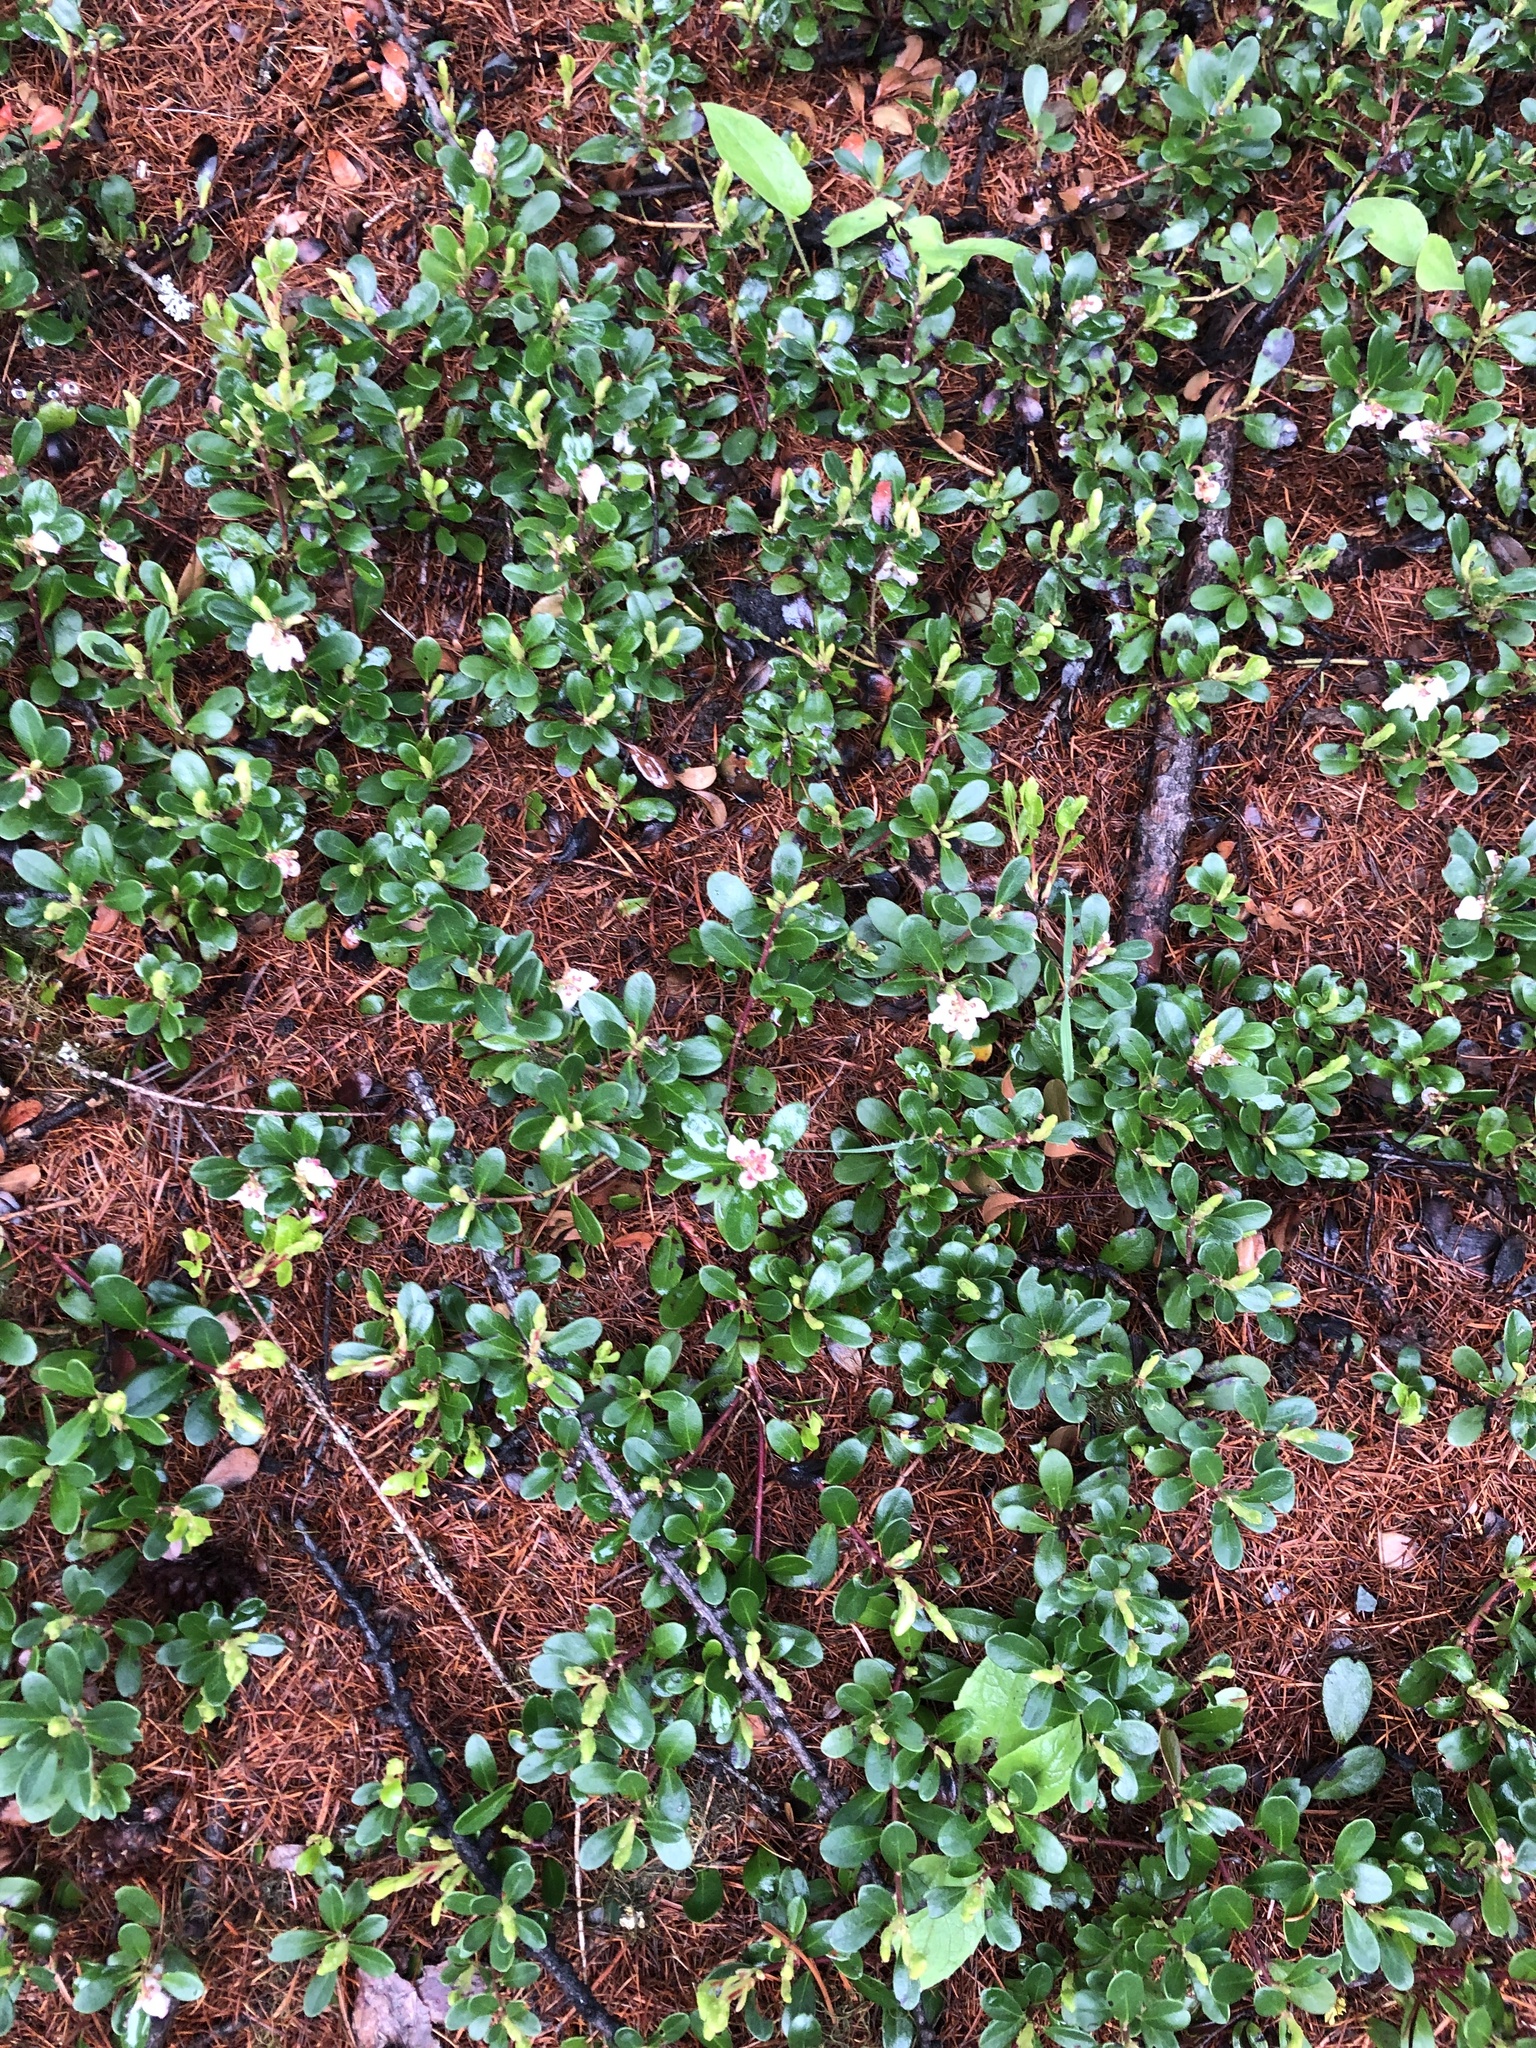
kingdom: Plantae
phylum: Tracheophyta
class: Magnoliopsida
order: Ericales
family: Ericaceae
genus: Arctostaphylos
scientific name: Arctostaphylos uva-ursi
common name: Bearberry
